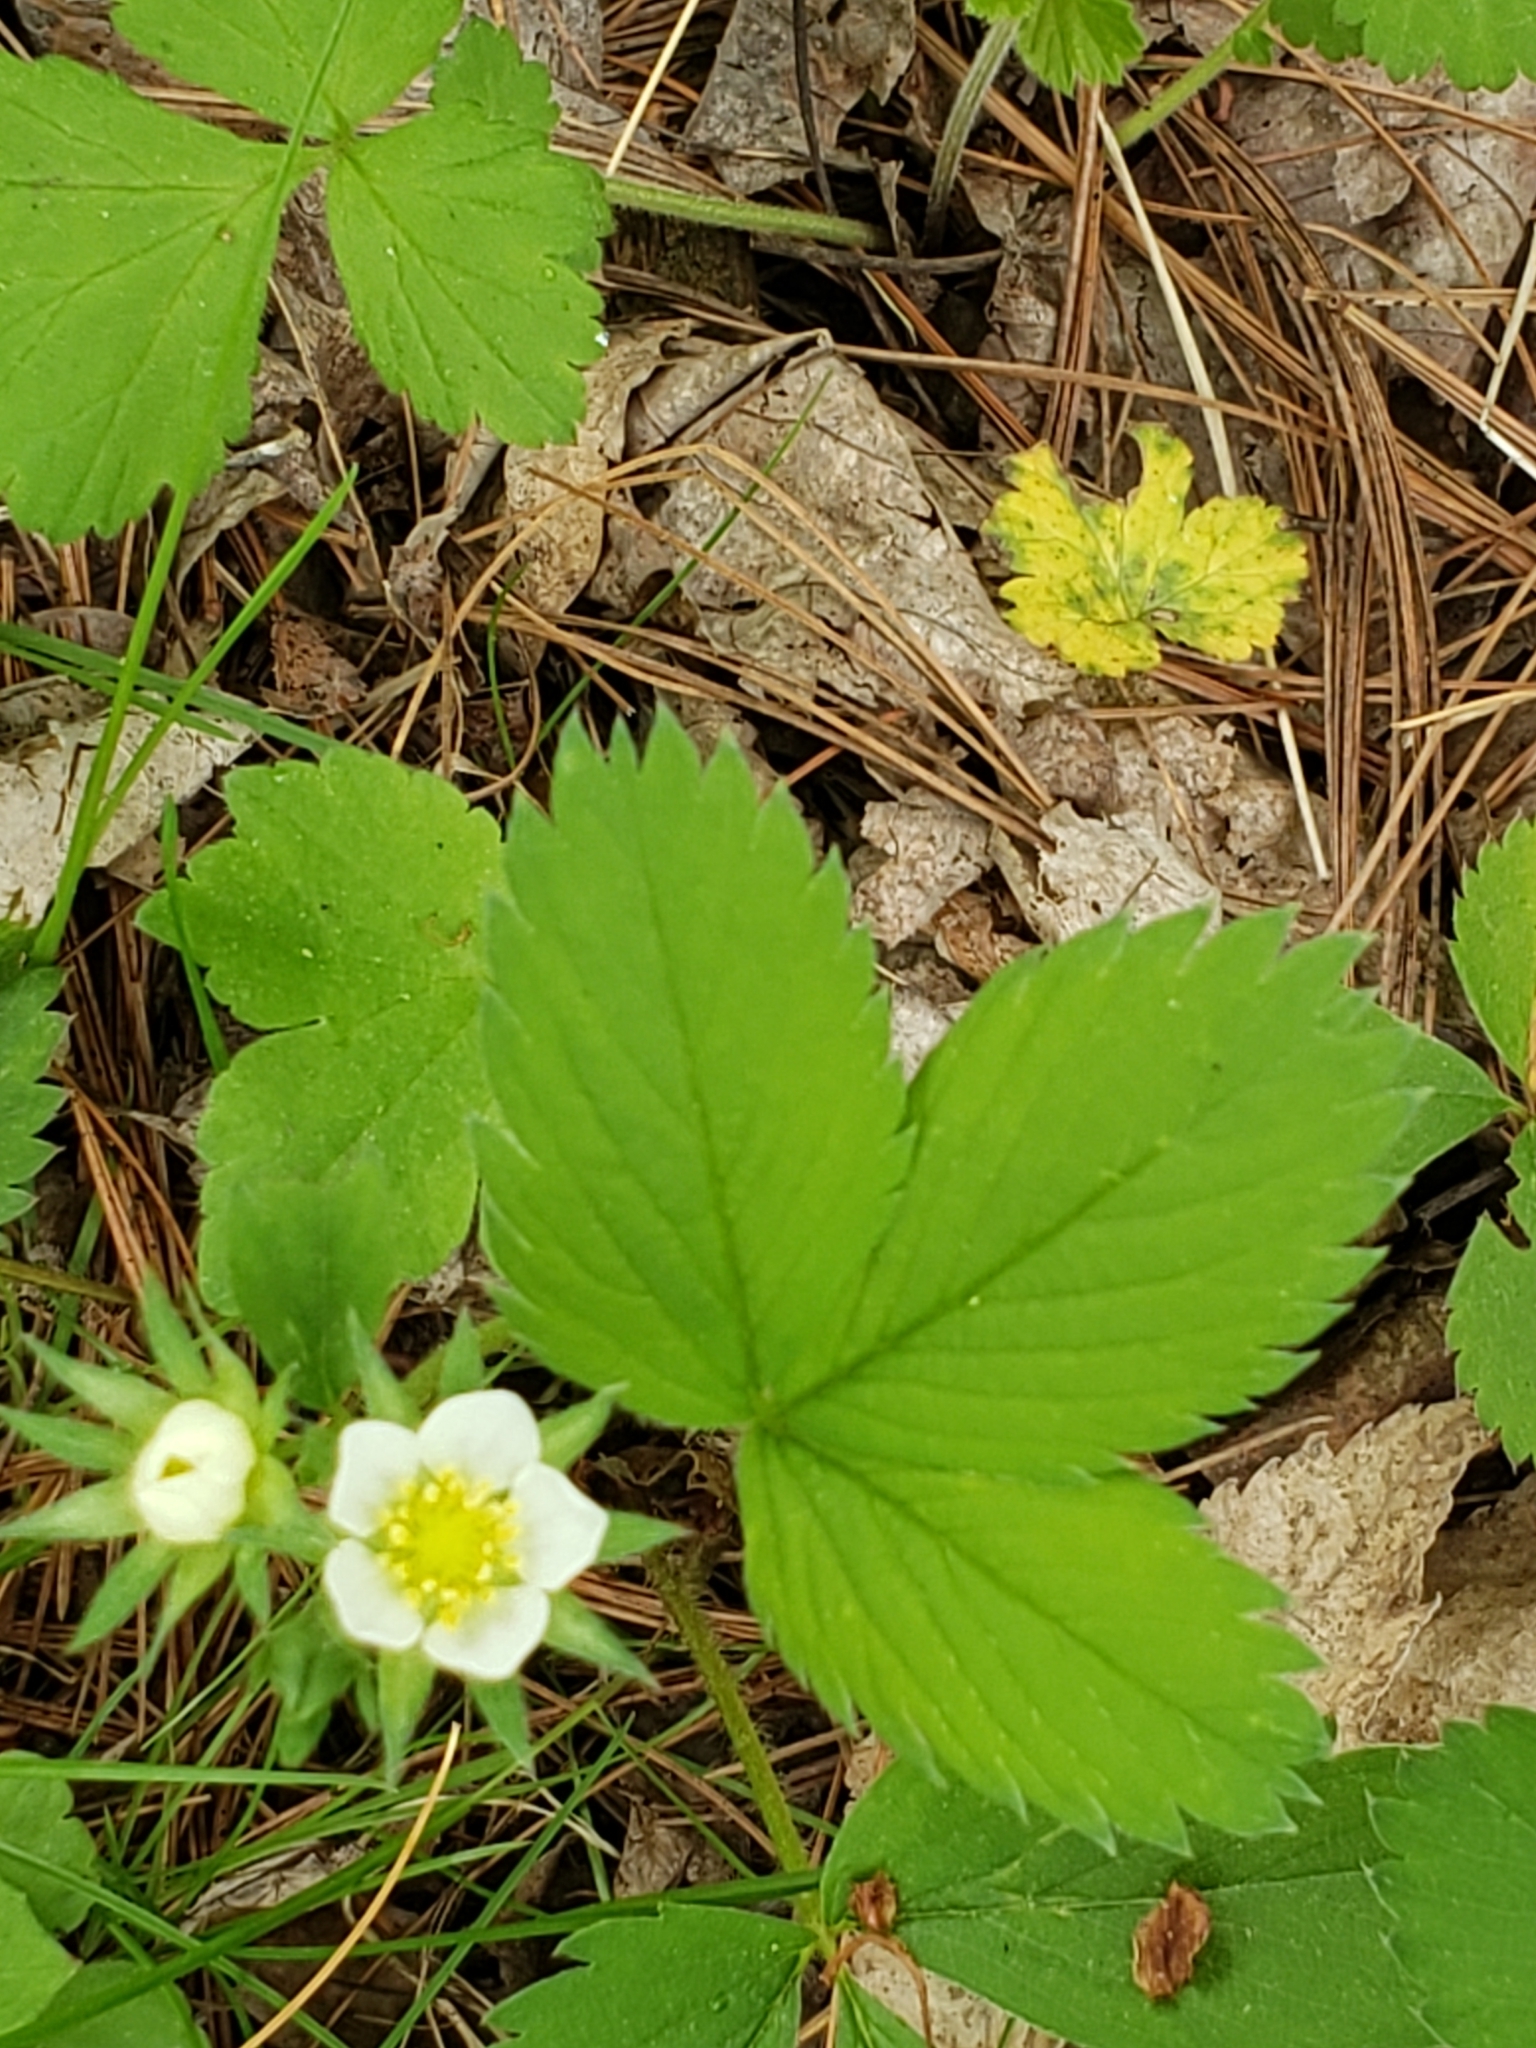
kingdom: Plantae
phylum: Tracheophyta
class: Magnoliopsida
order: Rosales
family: Rosaceae
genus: Fragaria
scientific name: Fragaria virginiana
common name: Thickleaved wild strawberry
